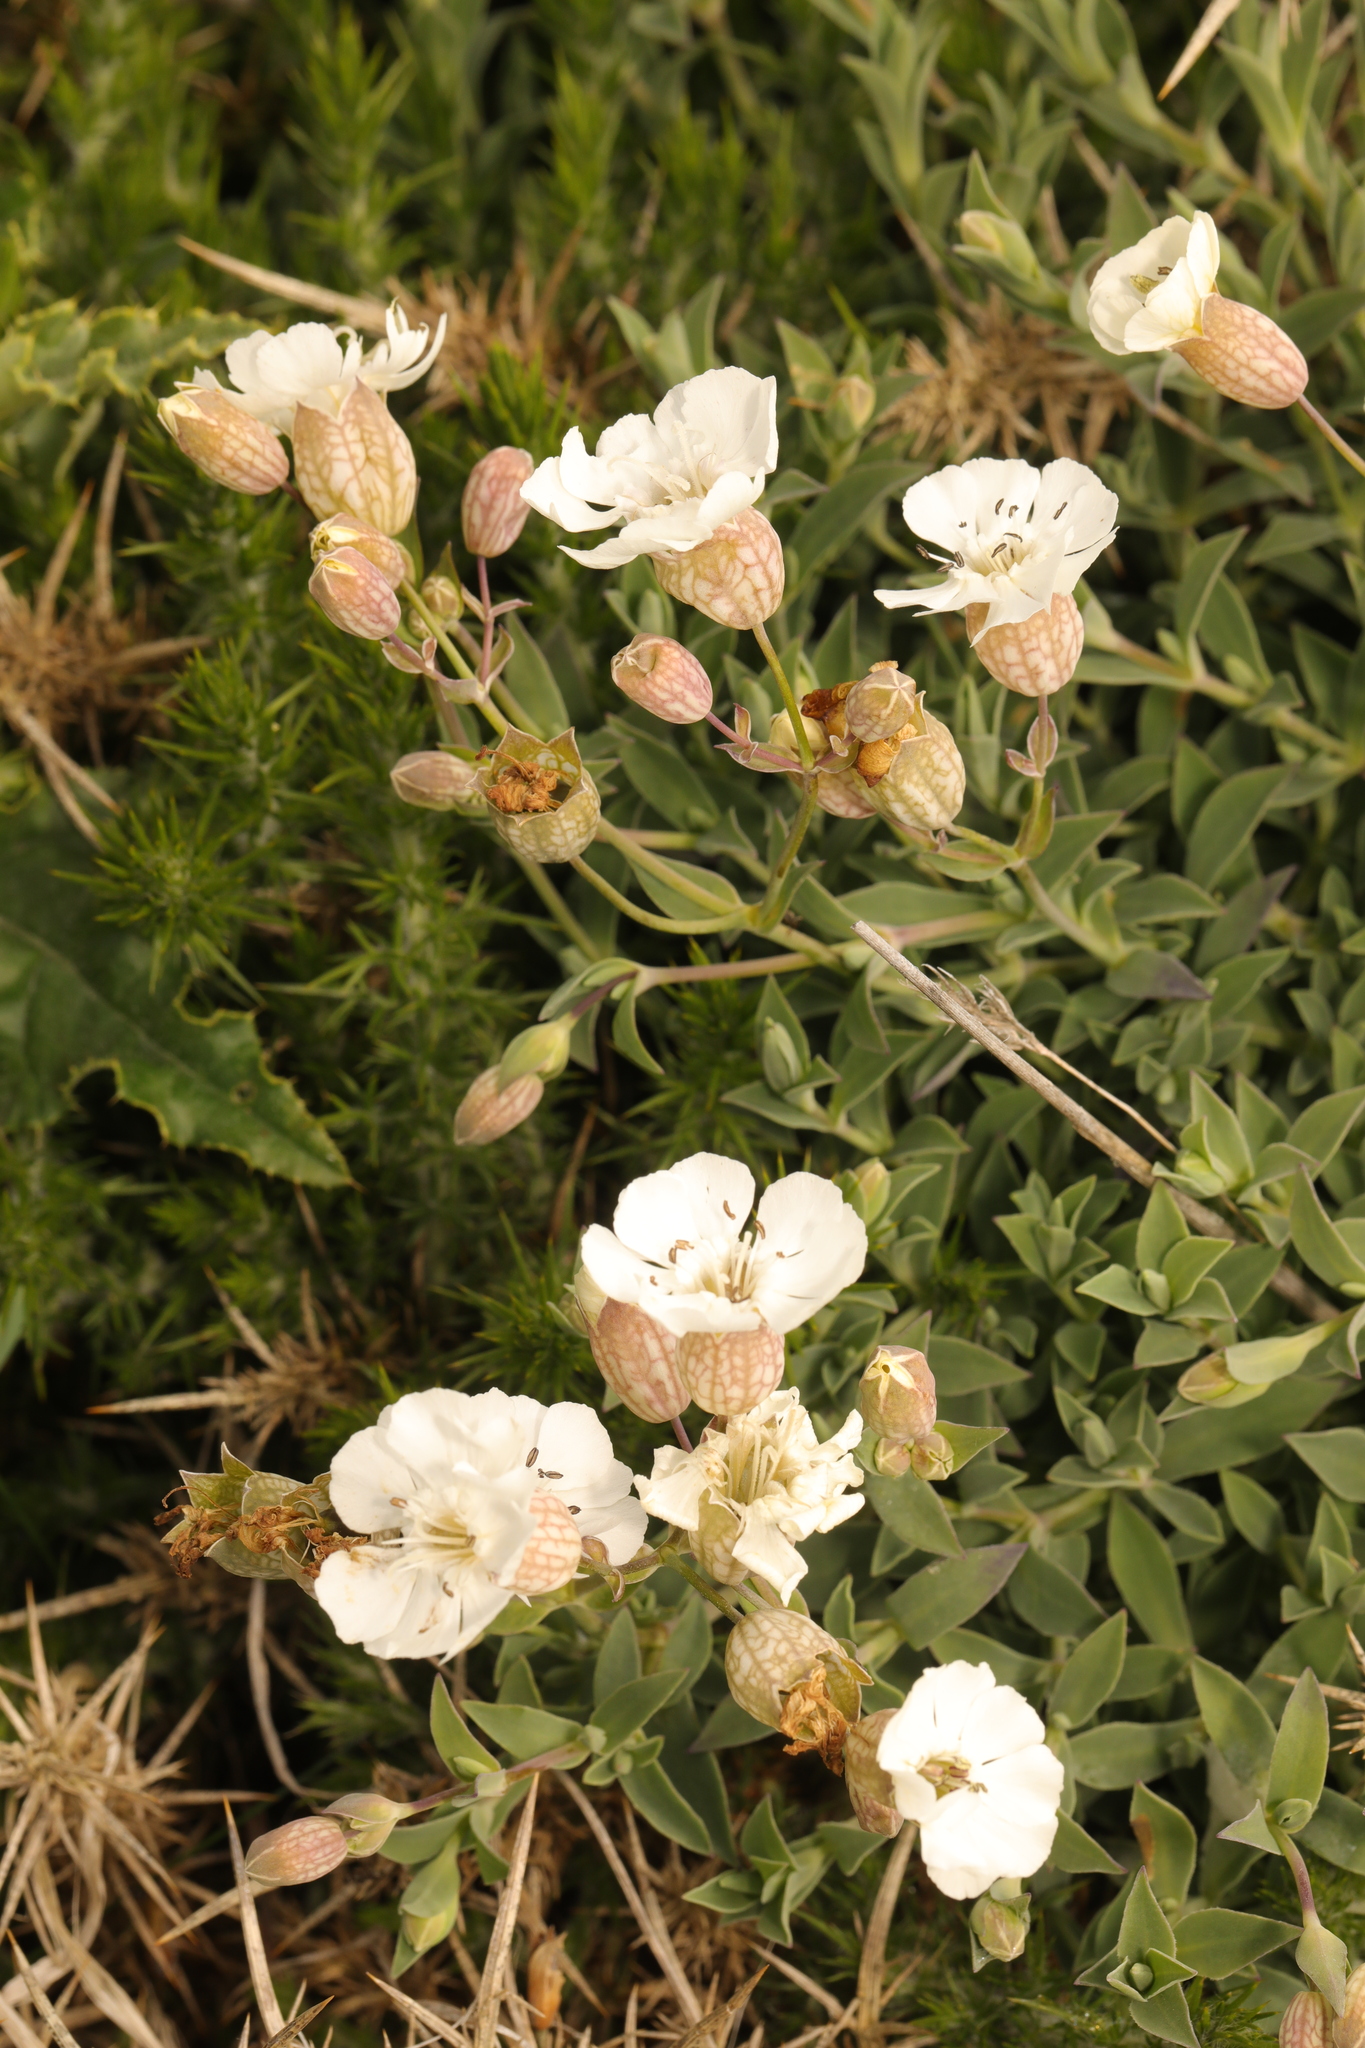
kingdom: Plantae
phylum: Tracheophyta
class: Magnoliopsida
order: Caryophyllales
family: Caryophyllaceae
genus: Silene
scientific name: Silene uniflora
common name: Sea campion
